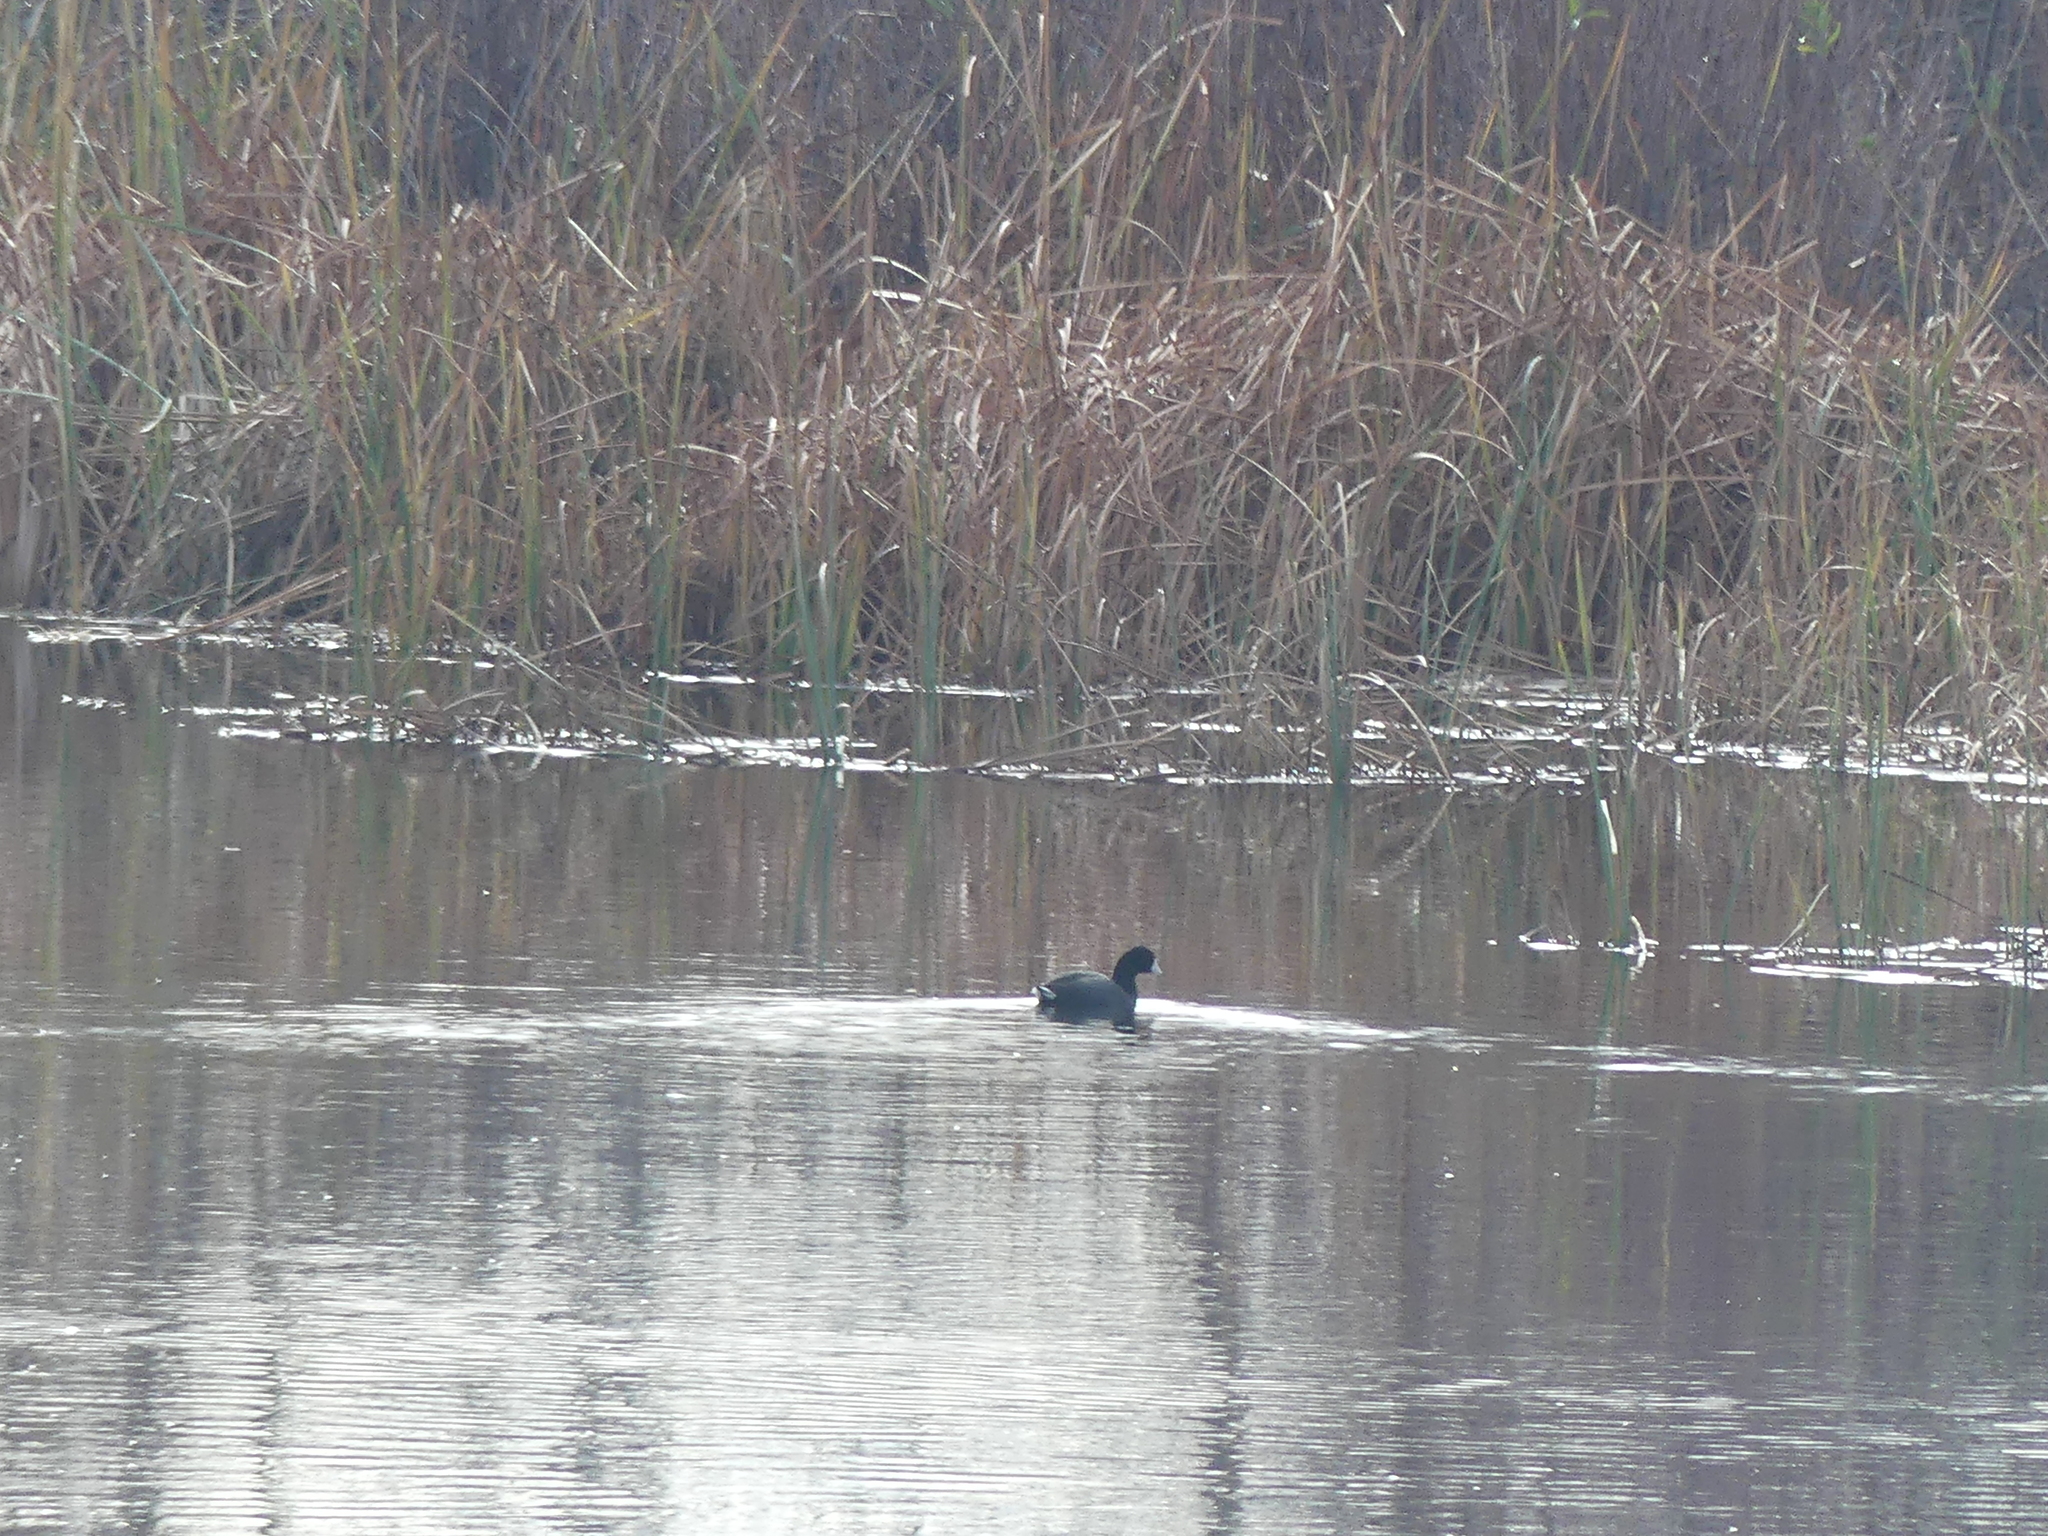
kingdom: Animalia
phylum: Chordata
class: Aves
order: Gruiformes
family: Rallidae
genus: Fulica
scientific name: Fulica americana
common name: American coot
